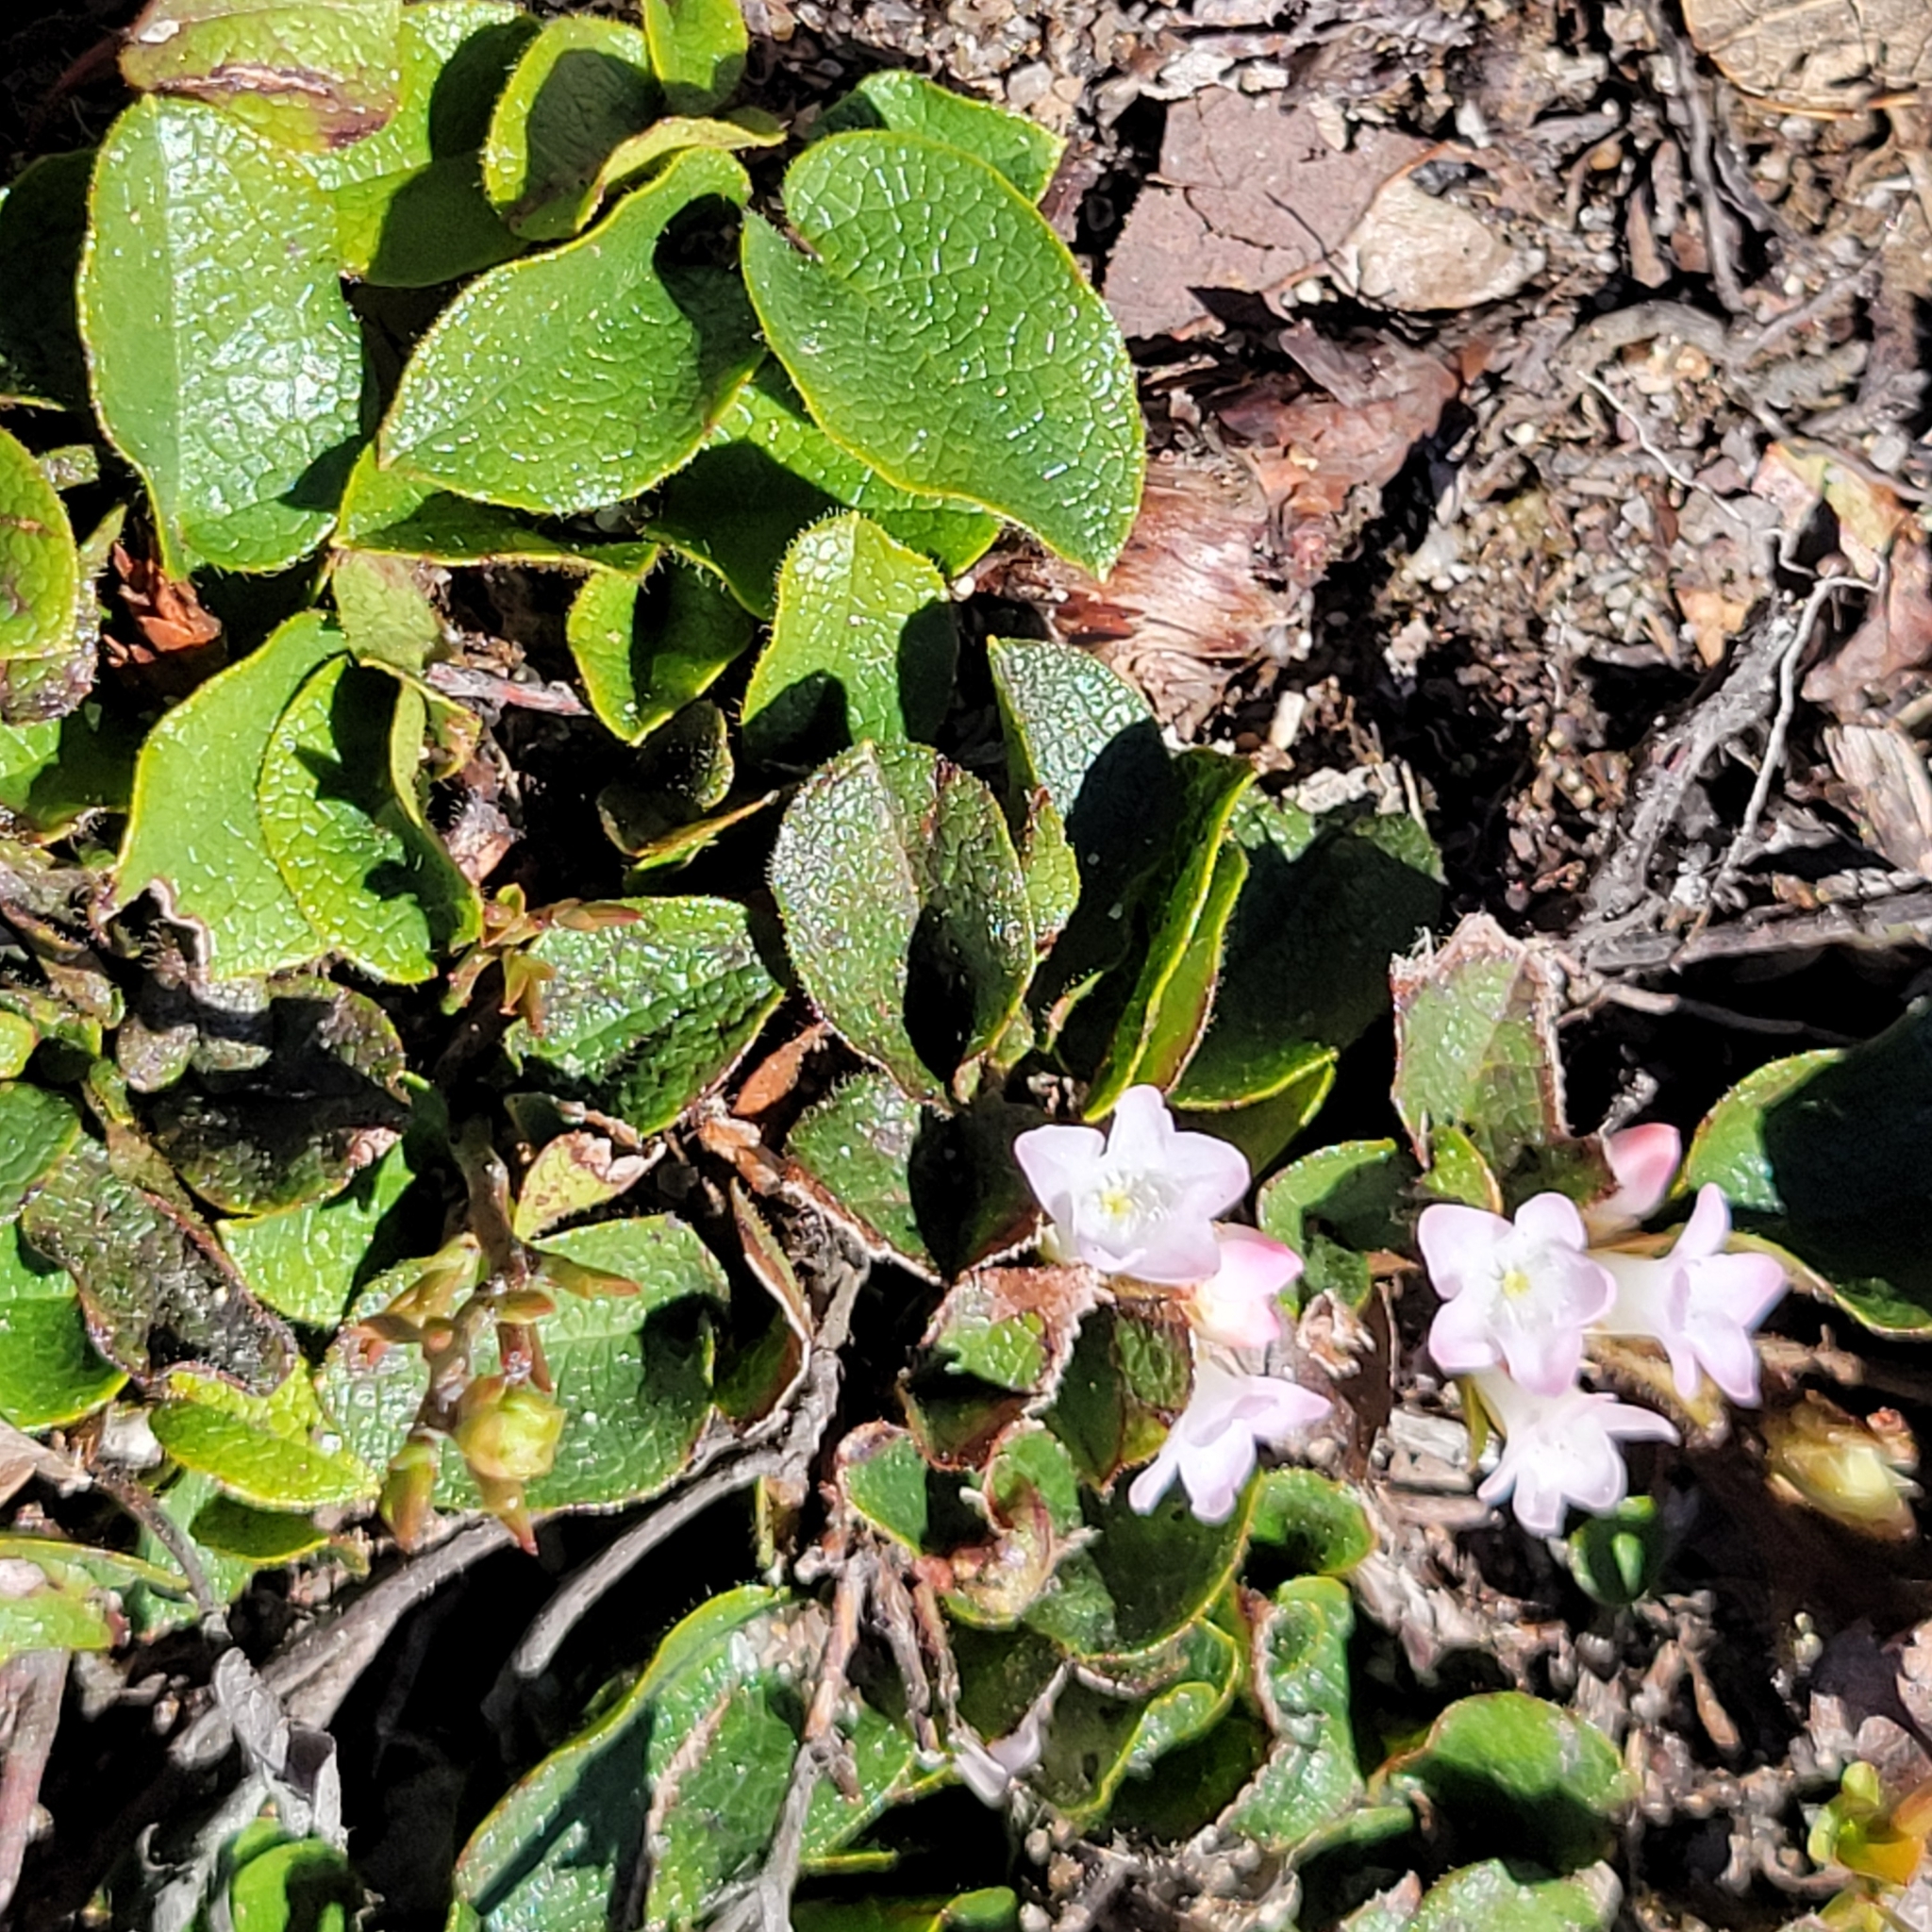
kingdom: Plantae
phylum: Tracheophyta
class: Magnoliopsida
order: Ericales
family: Ericaceae
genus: Epigaea
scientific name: Epigaea repens
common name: Gravelroot
